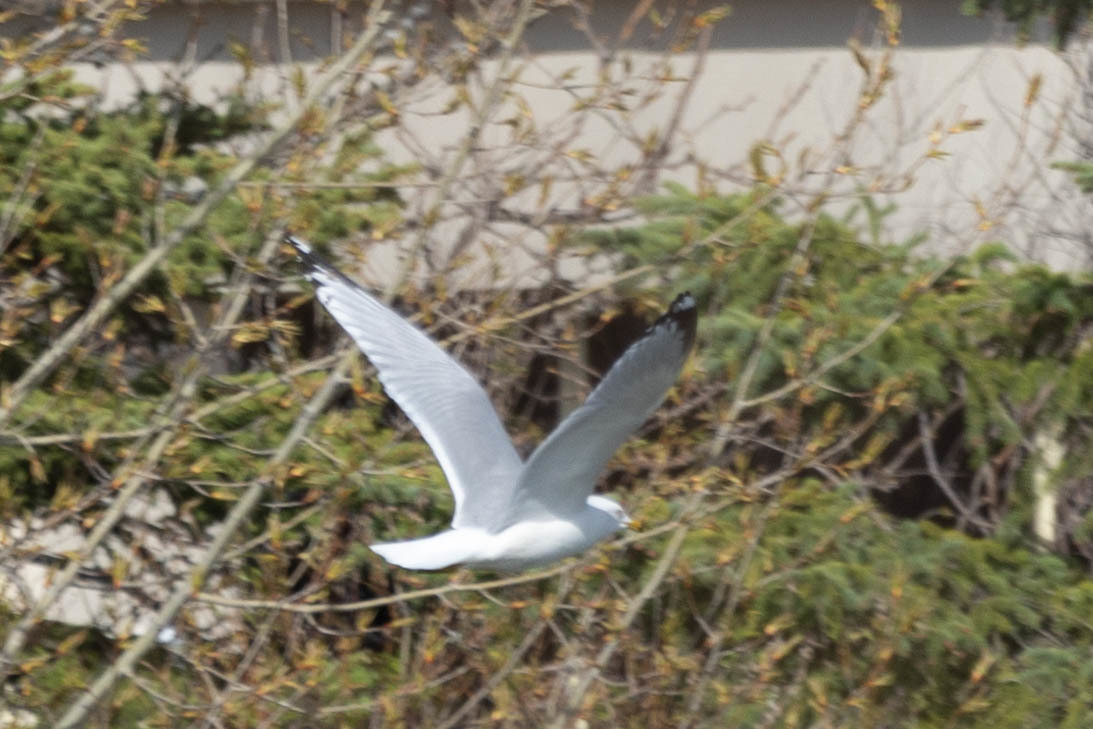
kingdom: Animalia
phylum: Chordata
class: Aves
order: Charadriiformes
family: Laridae
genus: Larus
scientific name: Larus delawarensis
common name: Ring-billed gull
